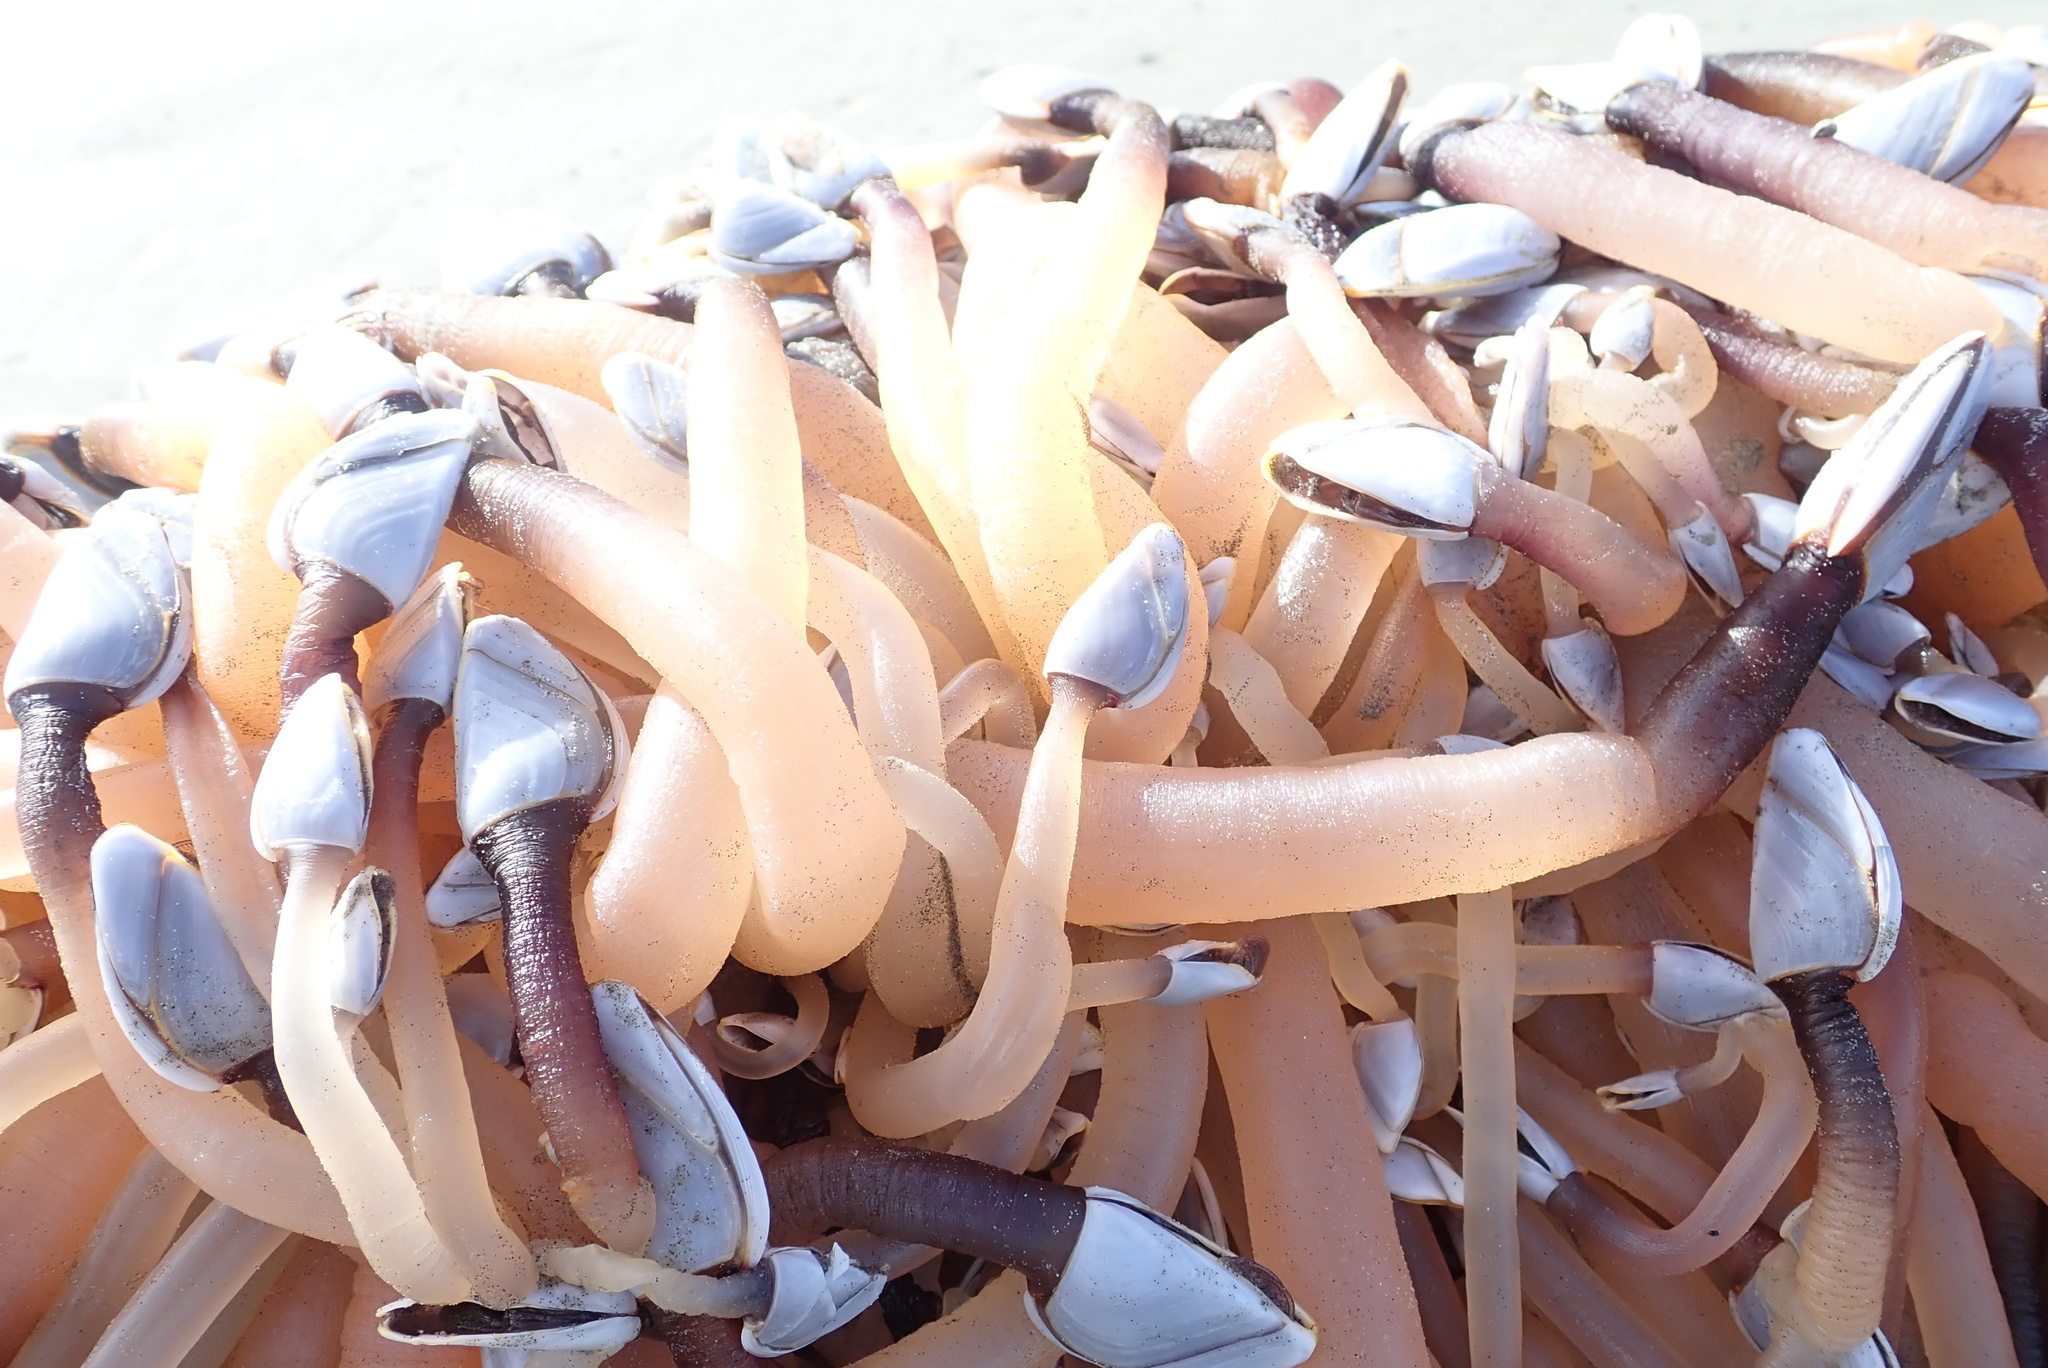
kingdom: Animalia
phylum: Arthropoda
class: Maxillopoda
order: Pedunculata
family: Lepadidae
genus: Lepas
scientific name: Lepas anatifera
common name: Common goose barnacle
